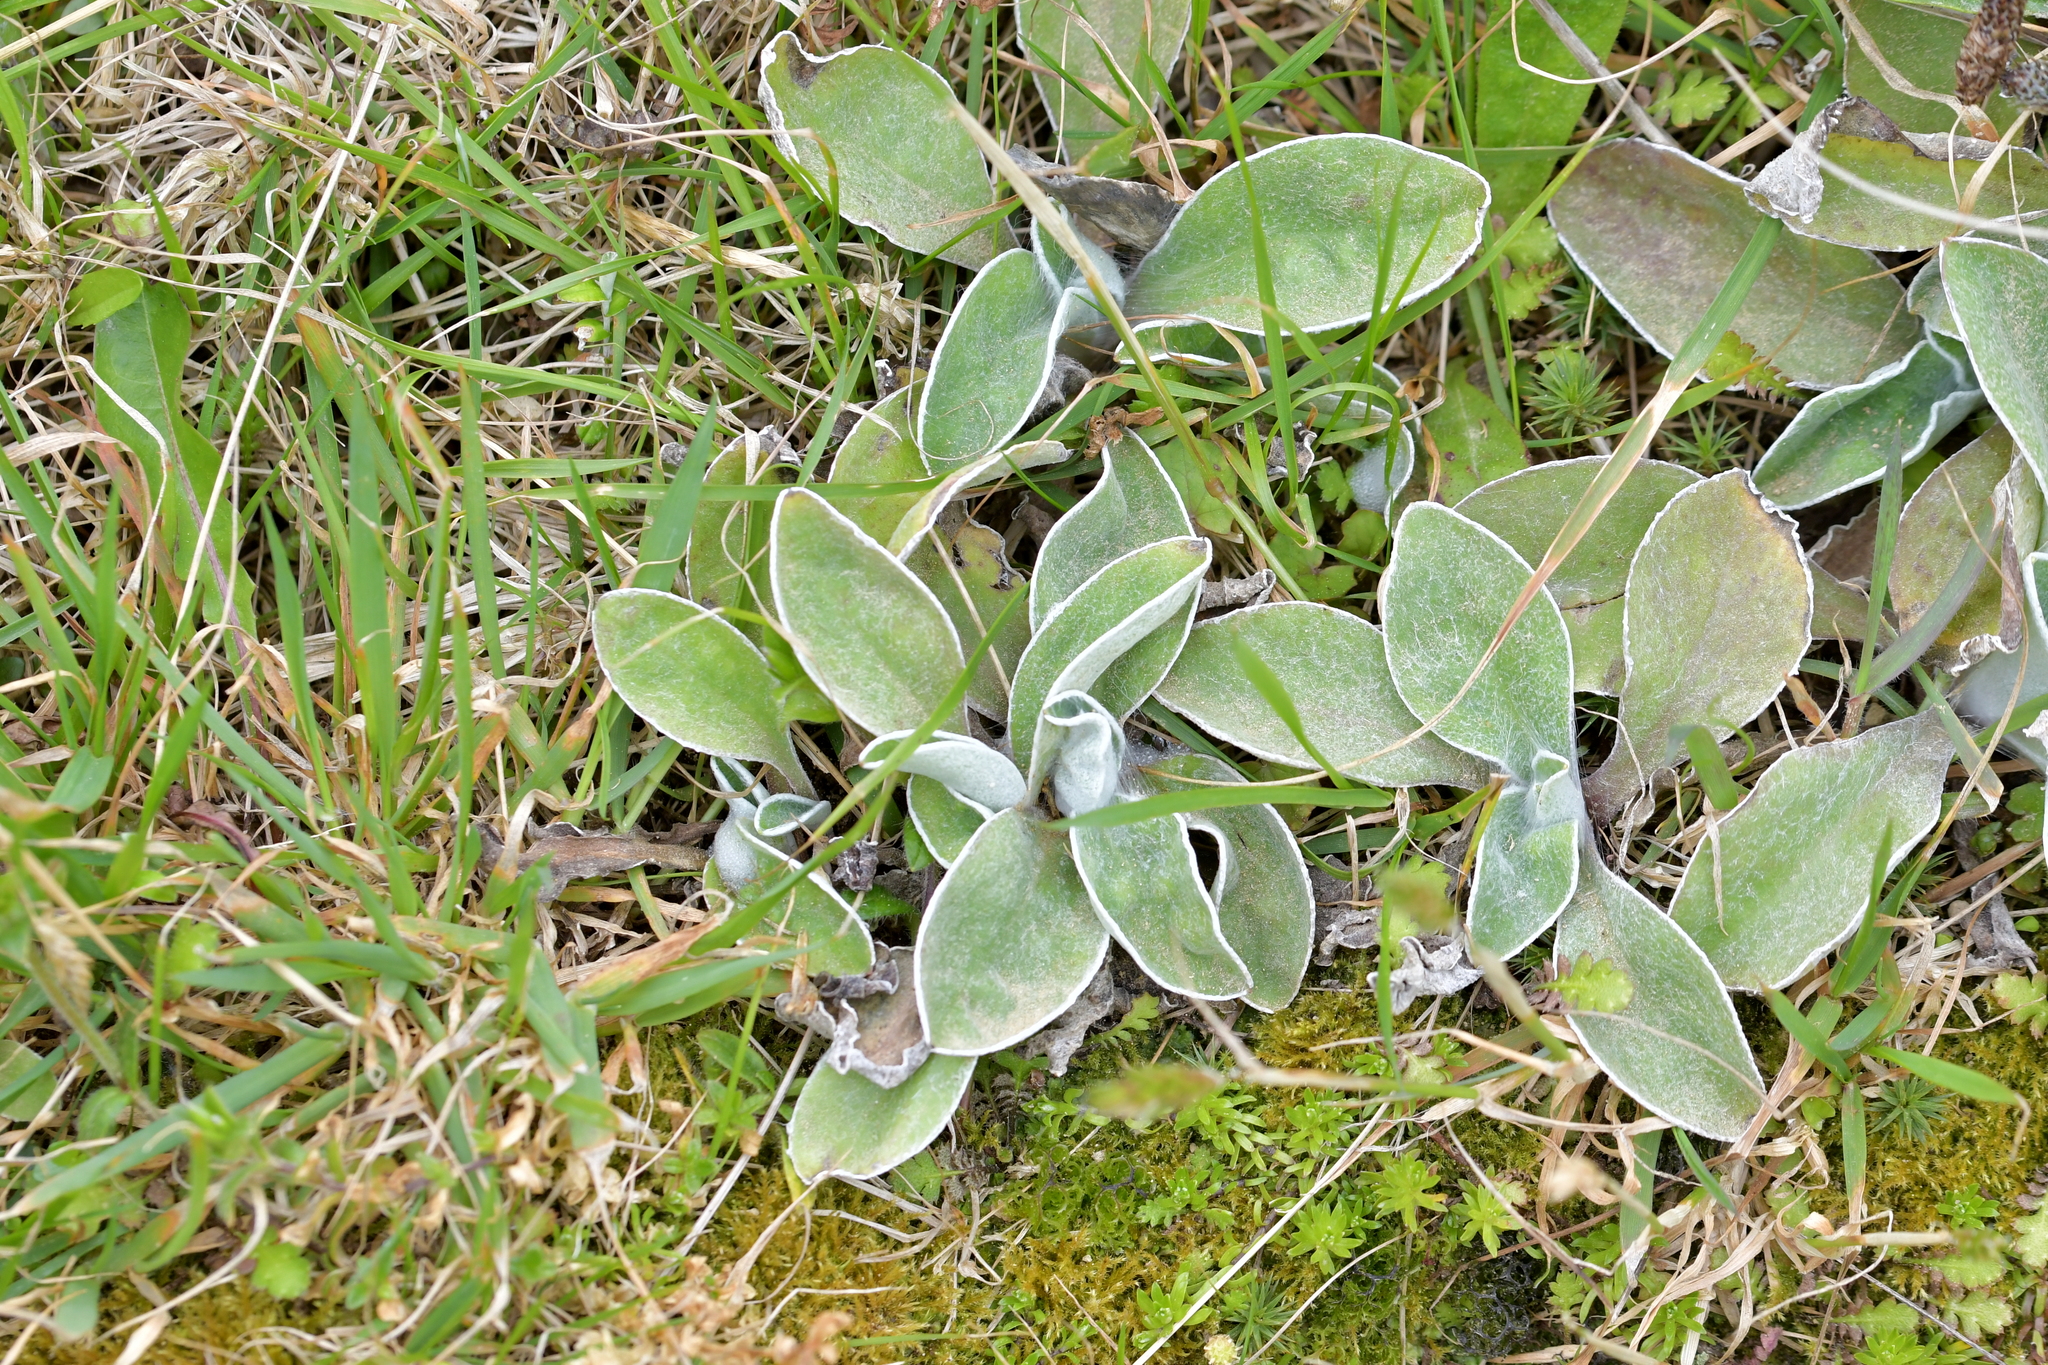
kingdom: Plantae
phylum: Tracheophyta
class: Magnoliopsida
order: Asterales
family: Asteraceae
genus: Craspedia
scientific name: Craspedia uniflora
